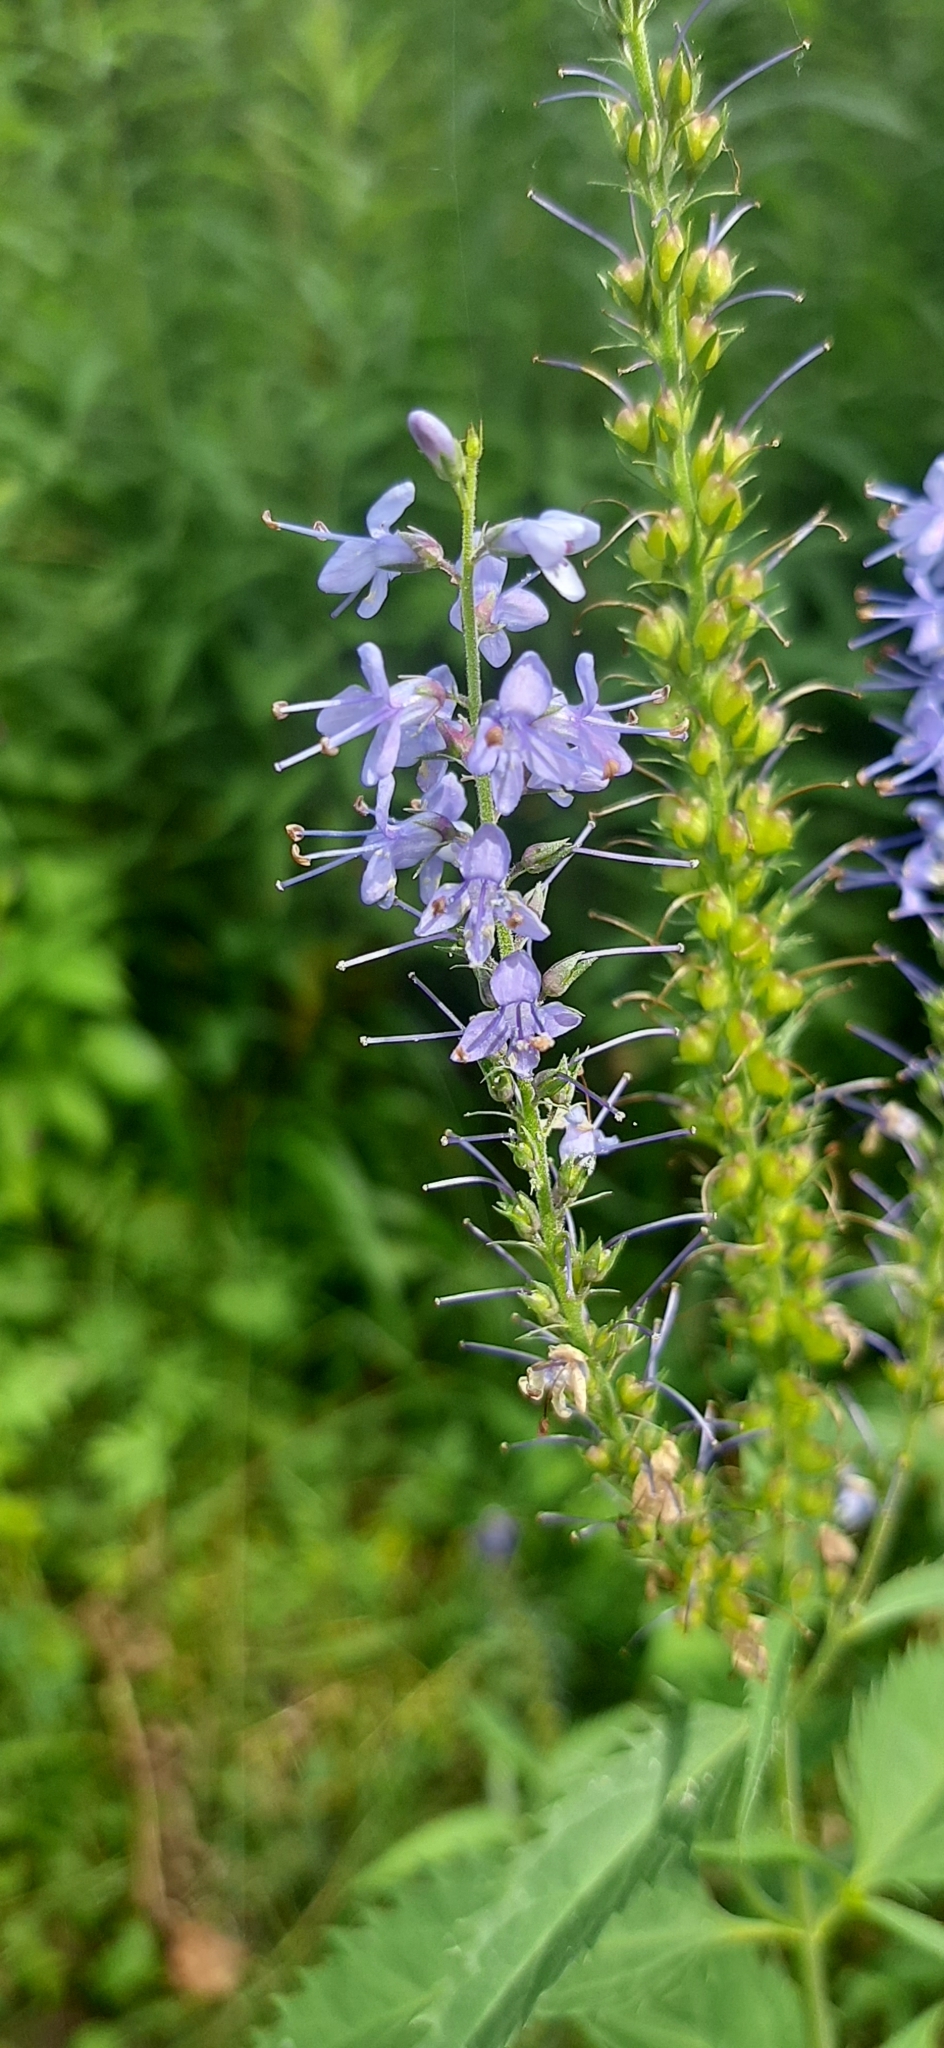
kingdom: Plantae
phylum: Tracheophyta
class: Magnoliopsida
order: Lamiales
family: Plantaginaceae
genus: Veronica
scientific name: Veronica longifolia
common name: Garden speedwell
